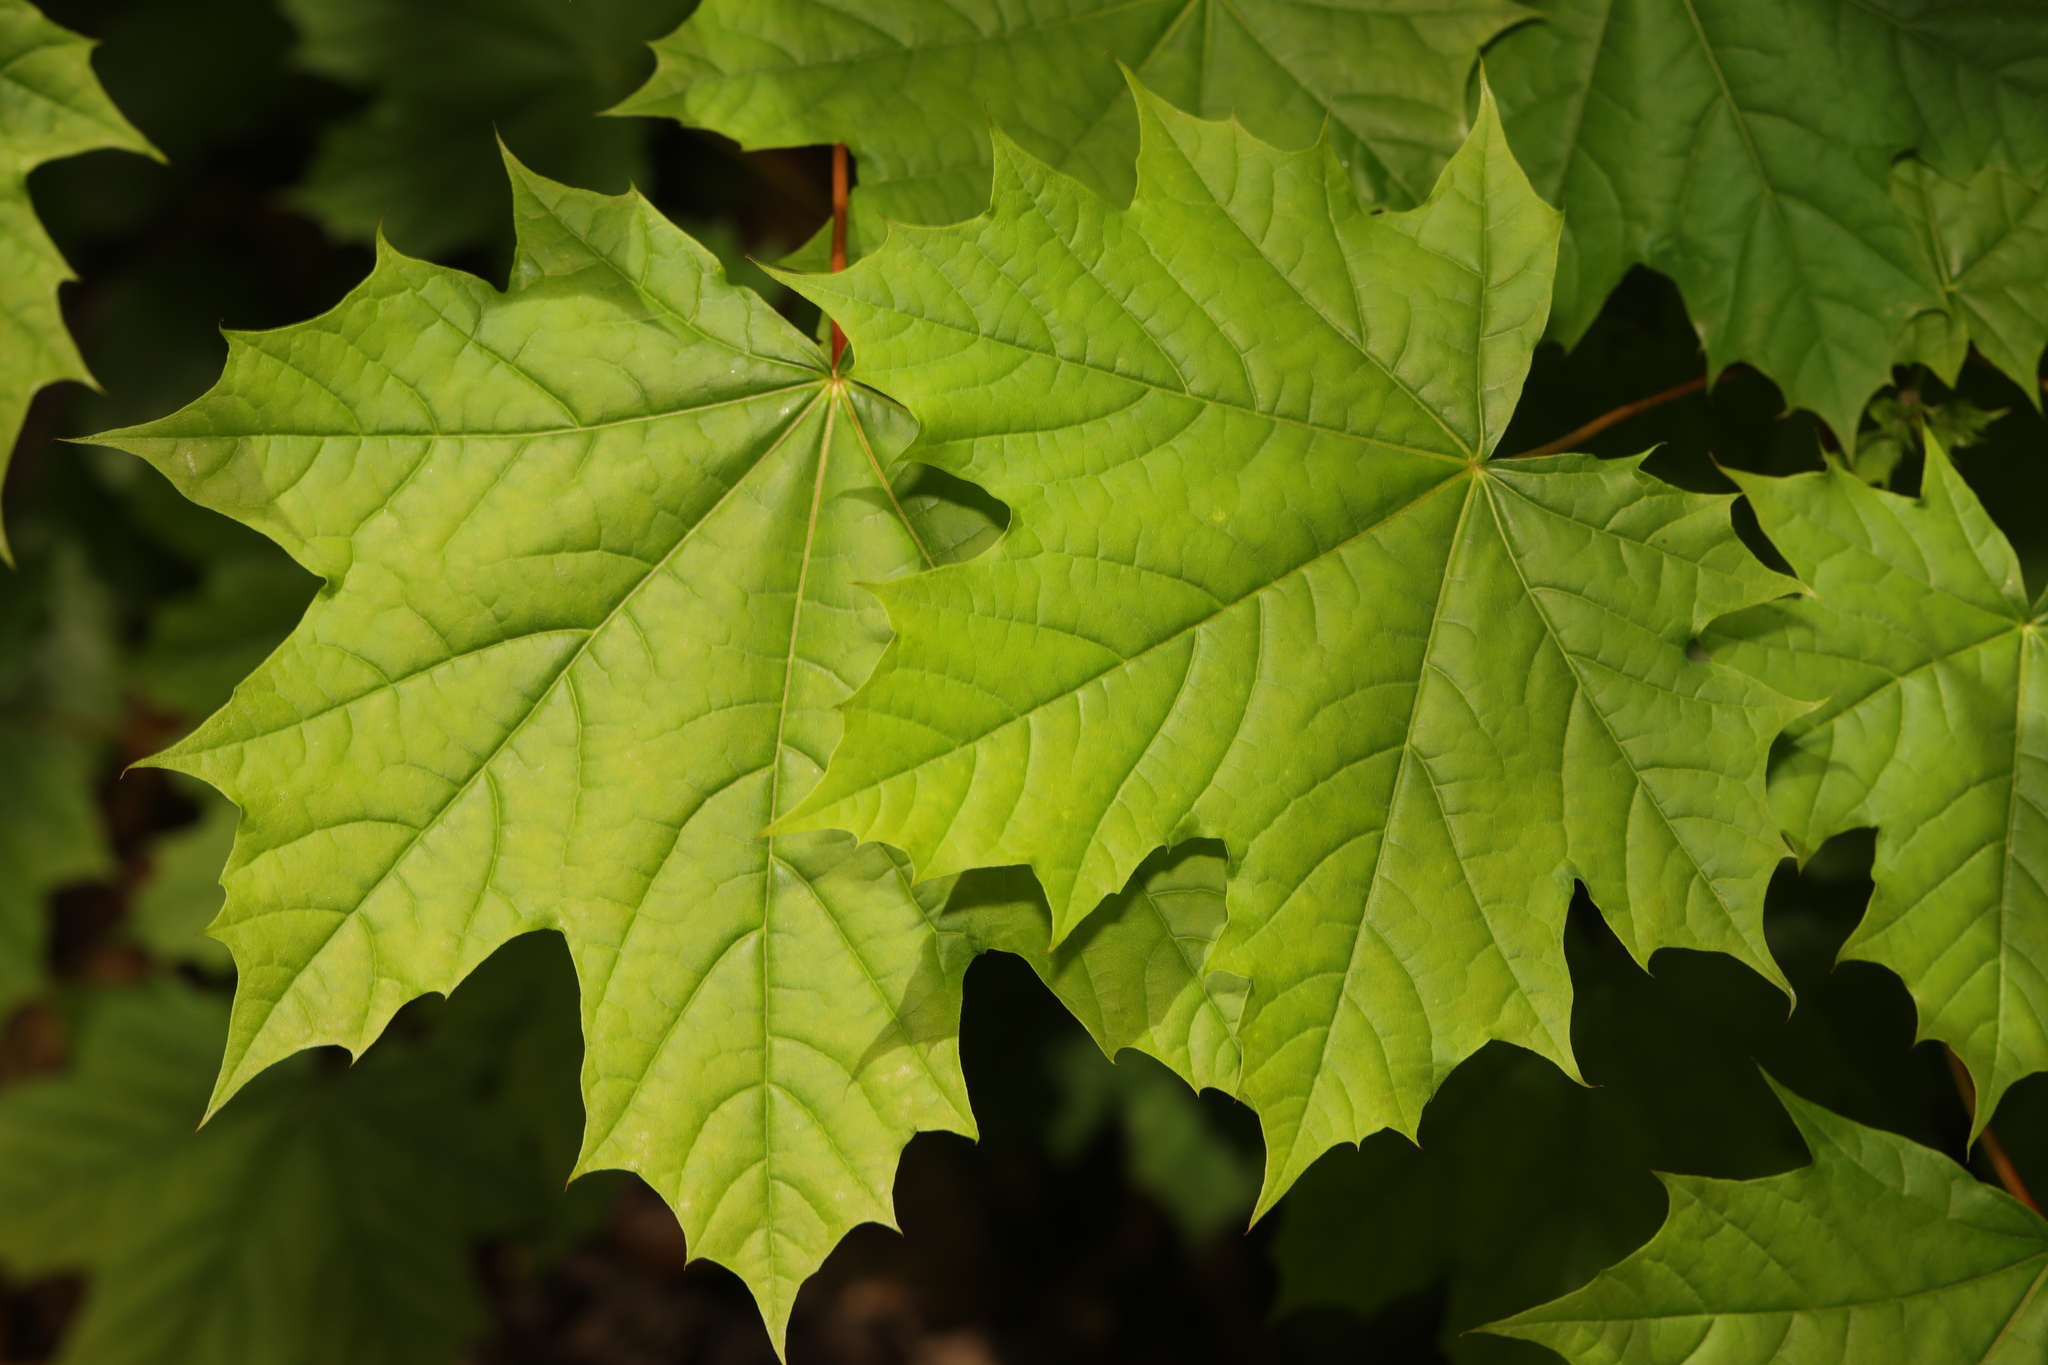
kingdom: Plantae
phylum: Tracheophyta
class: Magnoliopsida
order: Sapindales
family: Sapindaceae
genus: Acer
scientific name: Acer platanoides
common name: Norway maple
